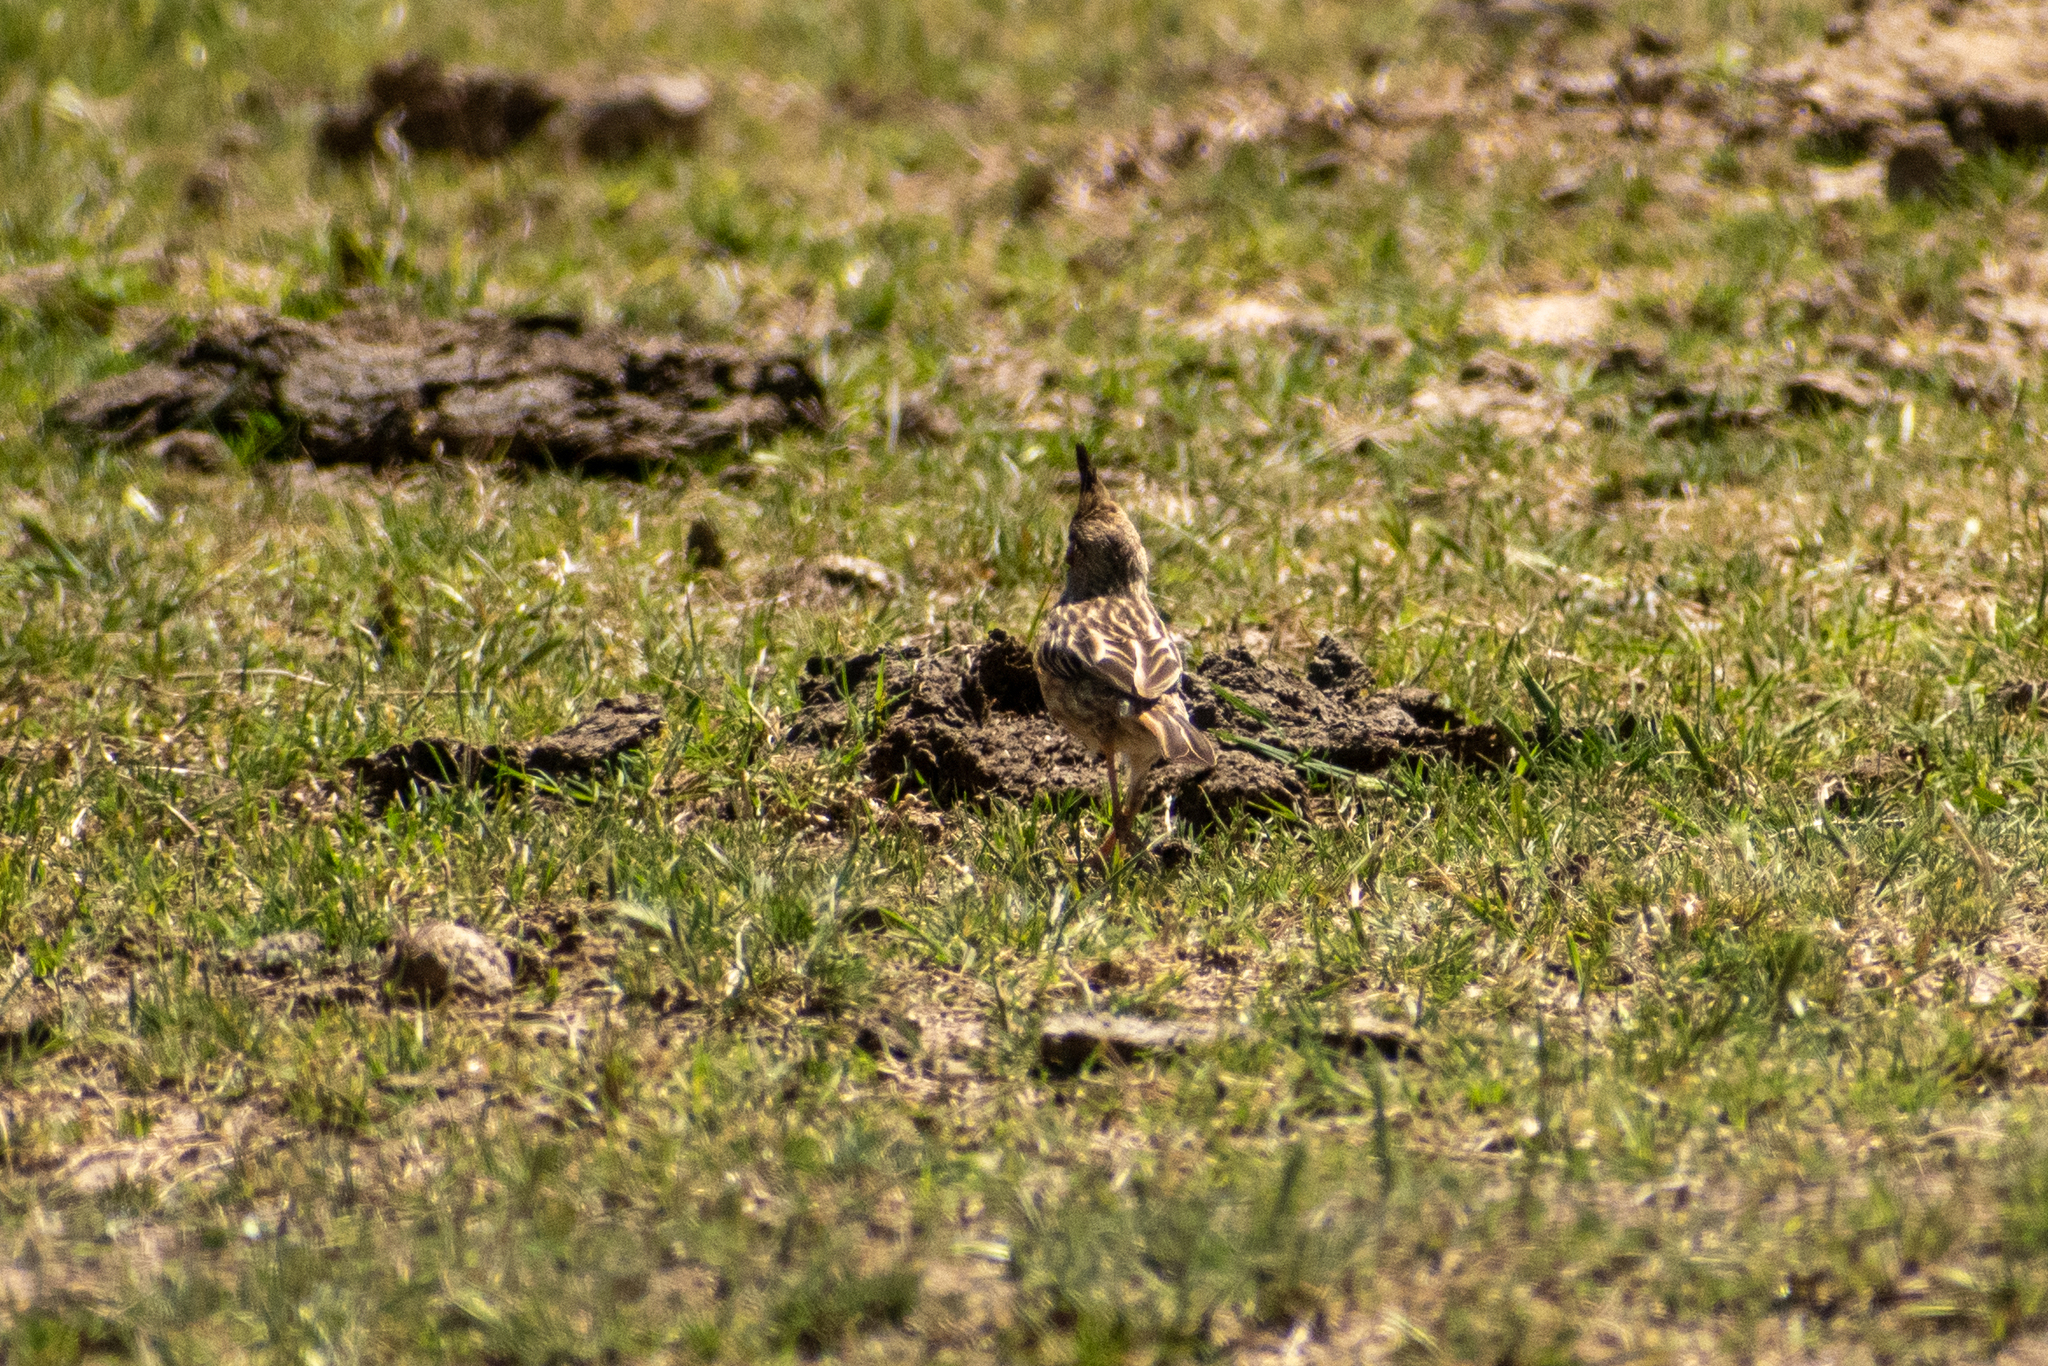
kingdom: Animalia
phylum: Chordata
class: Aves
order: Passeriformes
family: Furnariidae
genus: Coryphistera
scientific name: Coryphistera alaudina
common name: Lark-like brushrunner
